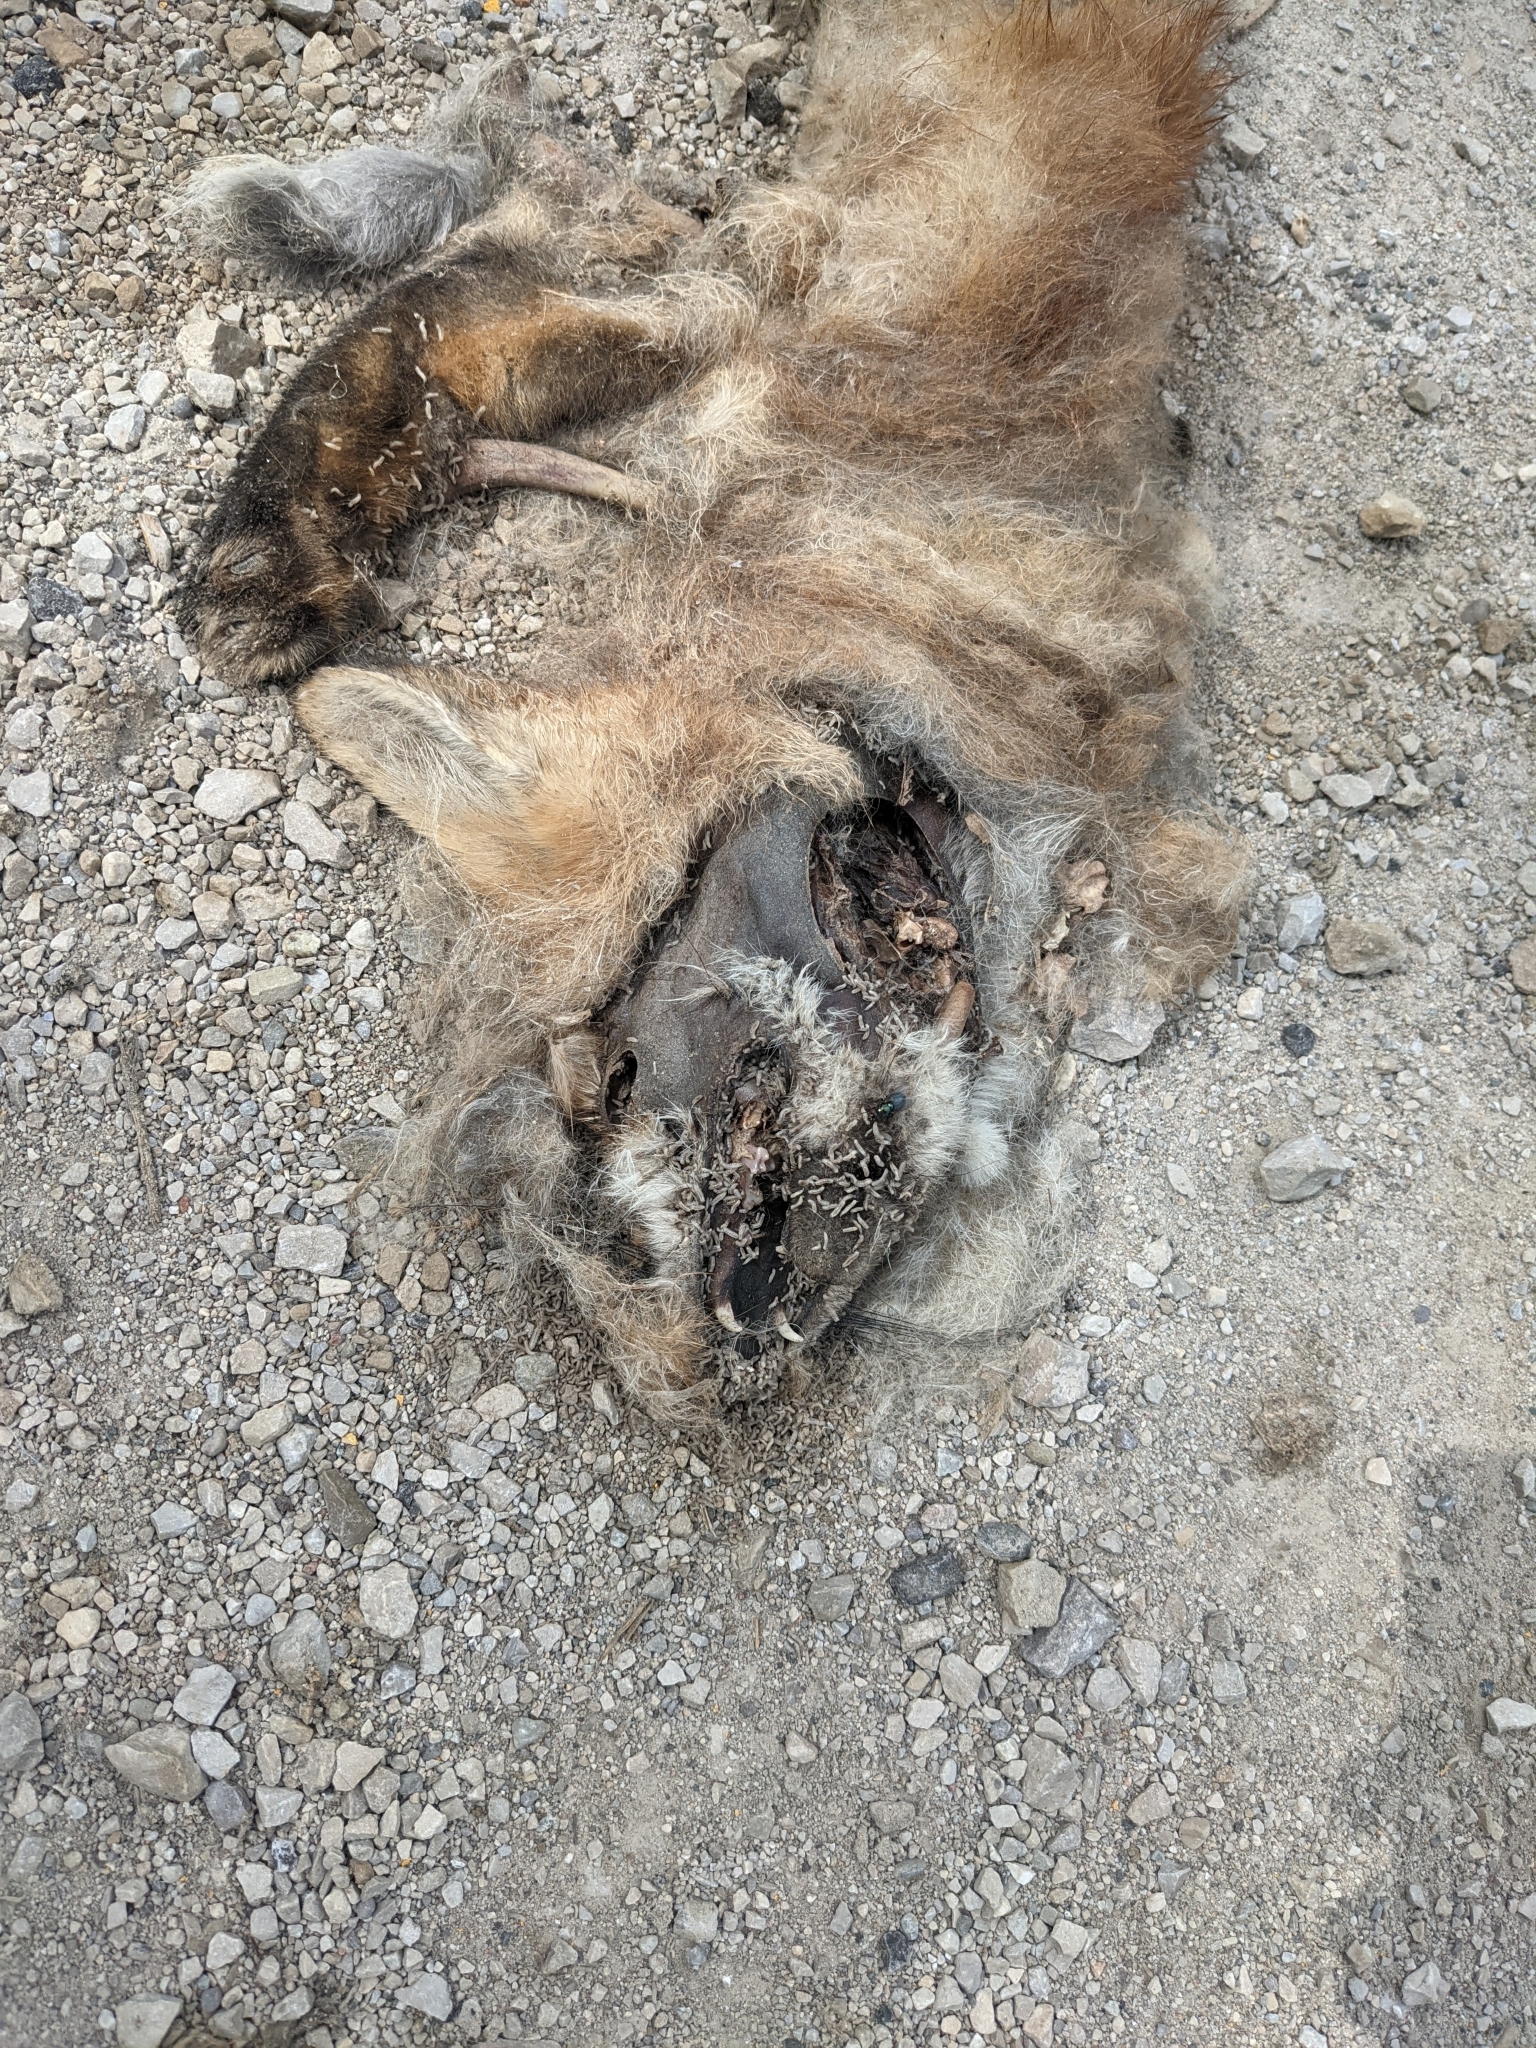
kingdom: Animalia
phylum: Chordata
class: Mammalia
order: Carnivora
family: Canidae
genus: Vulpes
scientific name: Vulpes vulpes
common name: Red fox
